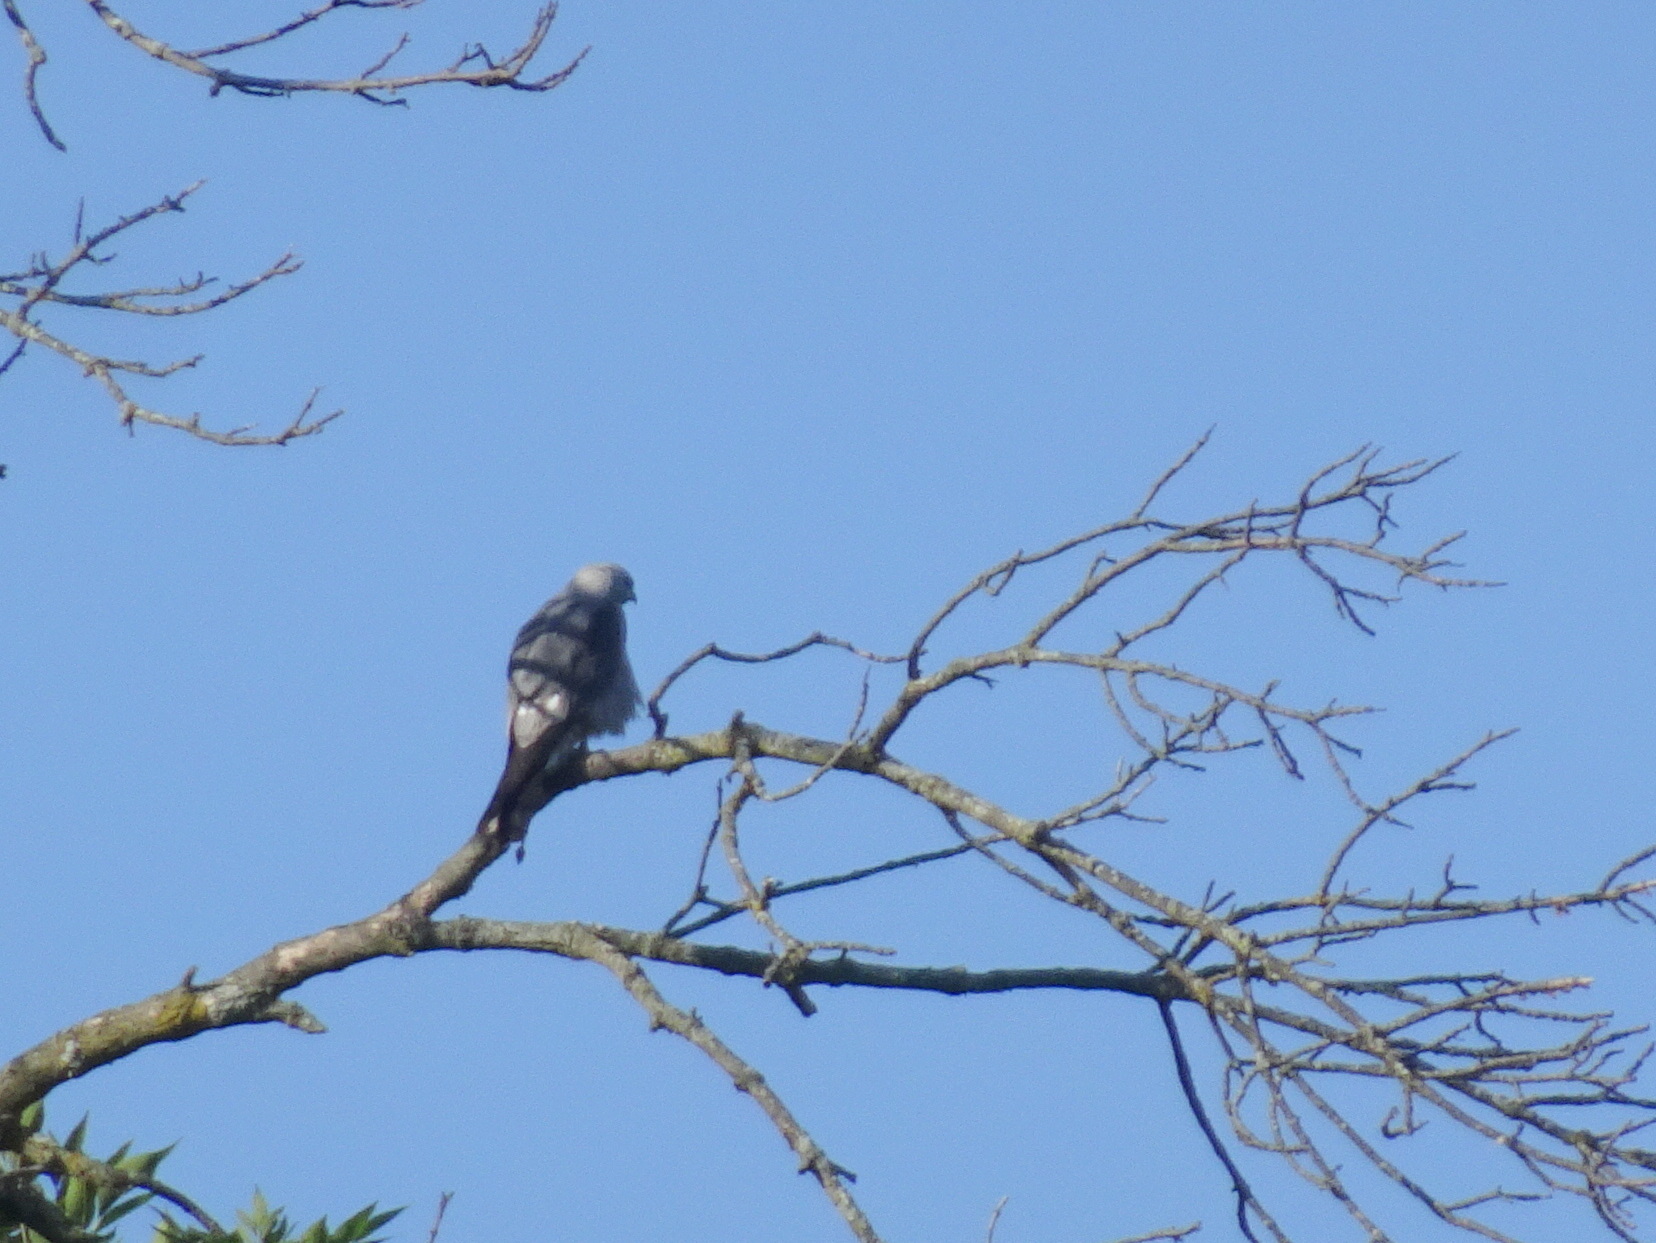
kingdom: Animalia
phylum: Chordata
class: Aves
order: Accipitriformes
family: Accipitridae
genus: Ictinia
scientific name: Ictinia mississippiensis
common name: Mississippi kite
